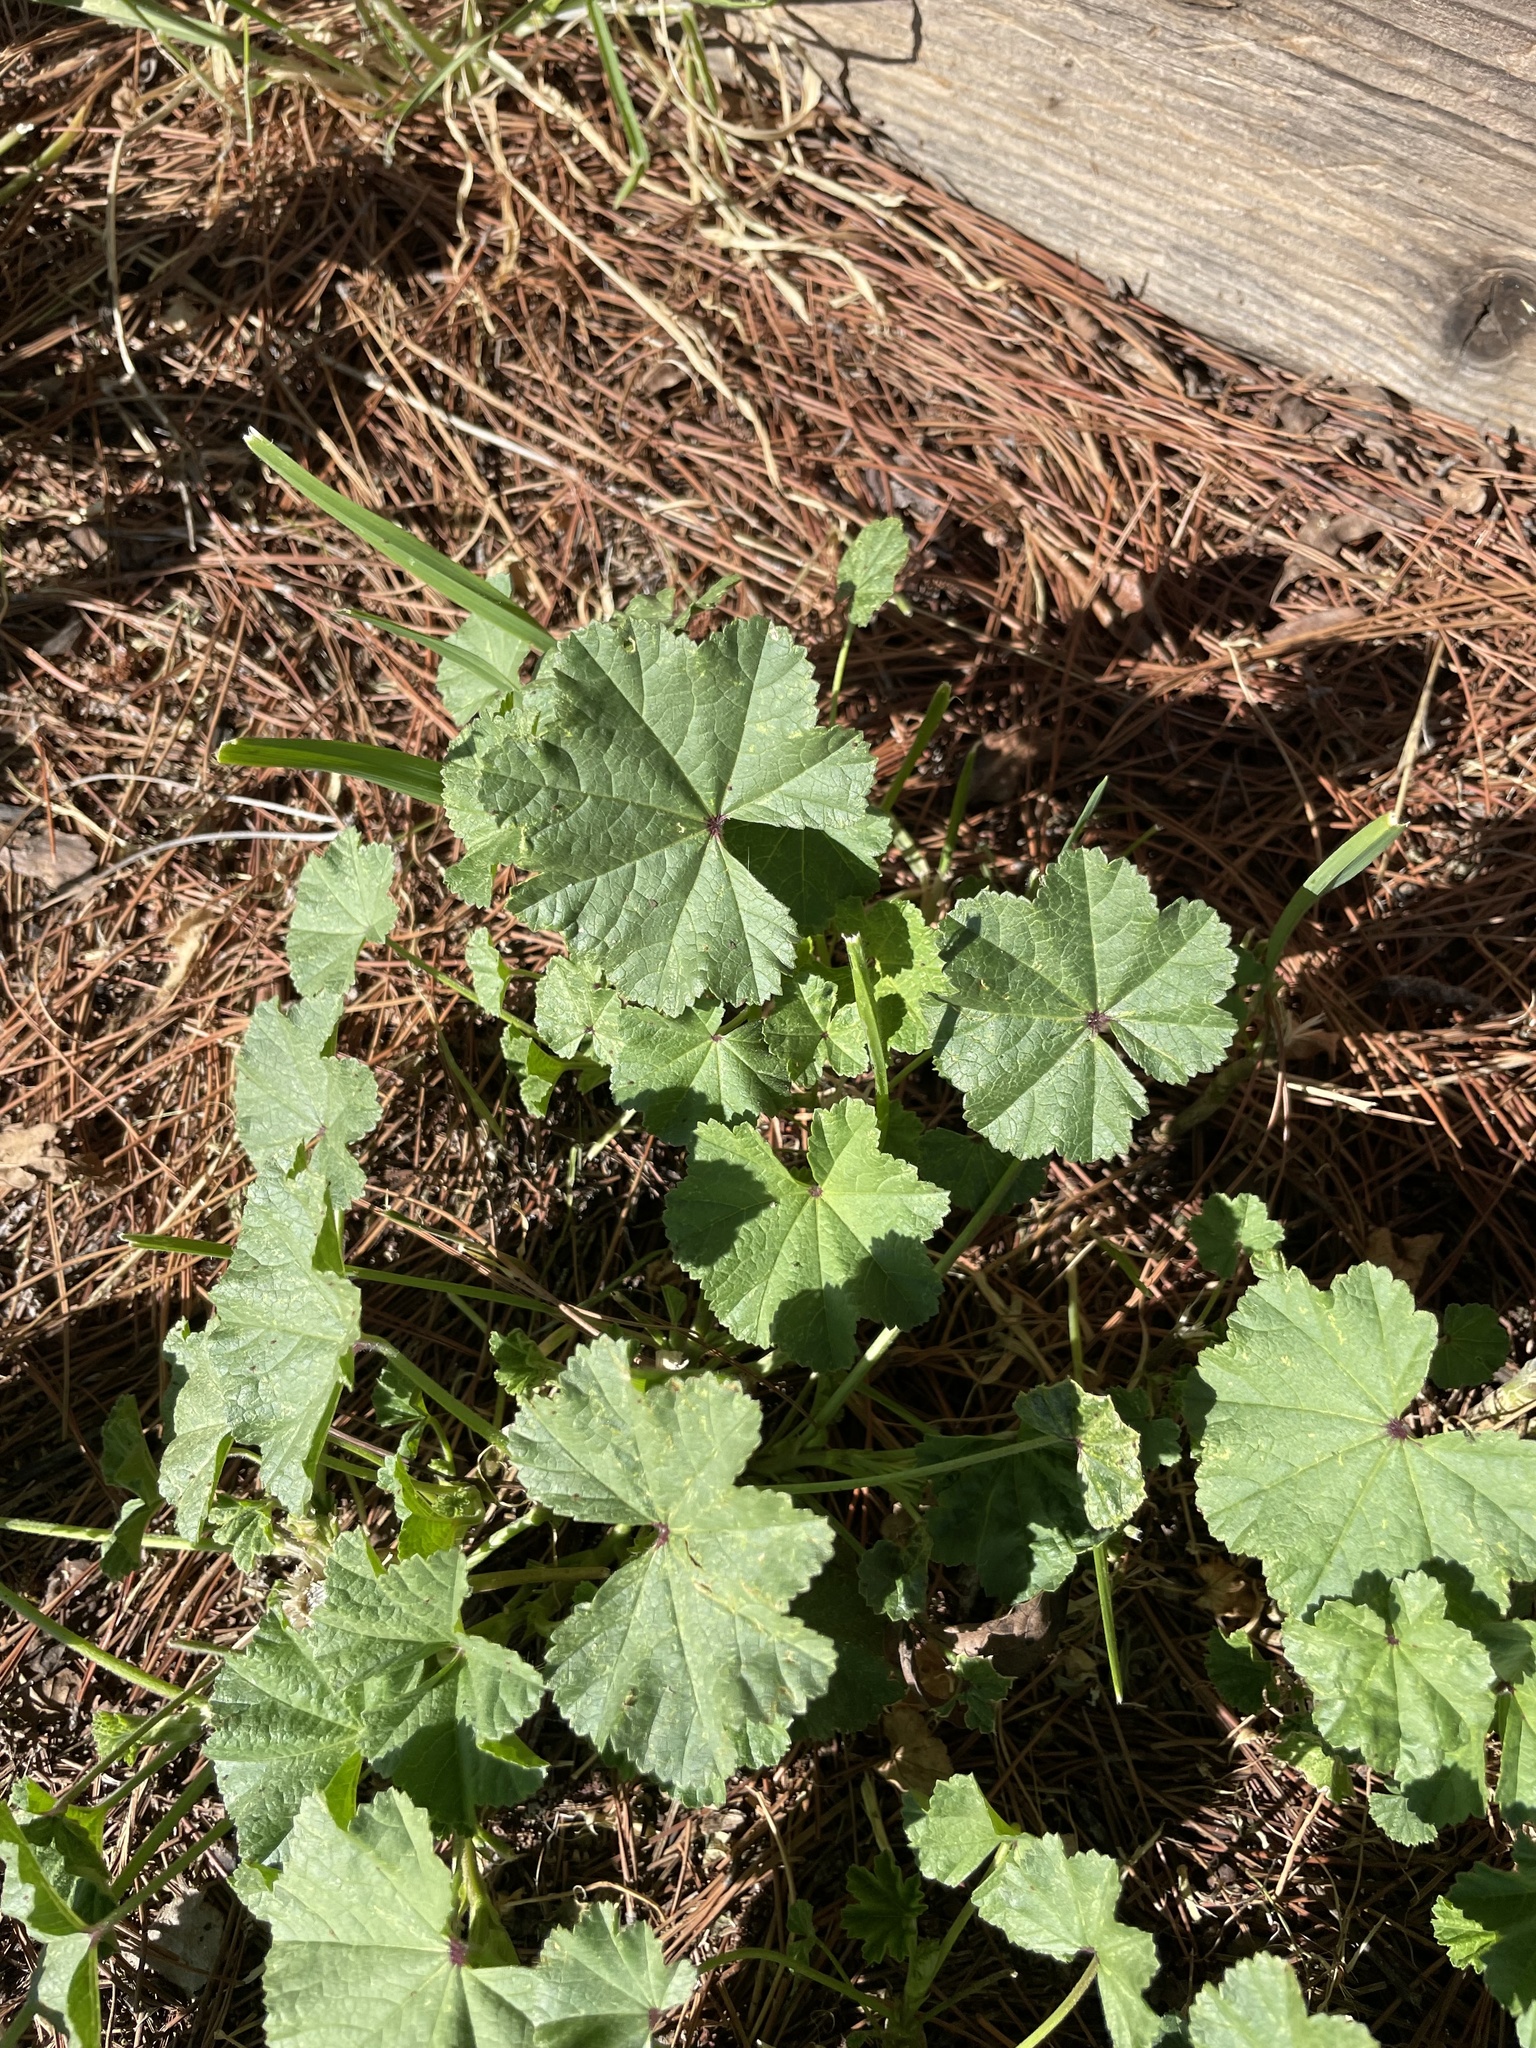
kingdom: Plantae
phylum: Tracheophyta
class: Magnoliopsida
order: Malvales
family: Malvaceae
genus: Malva
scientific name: Malva
